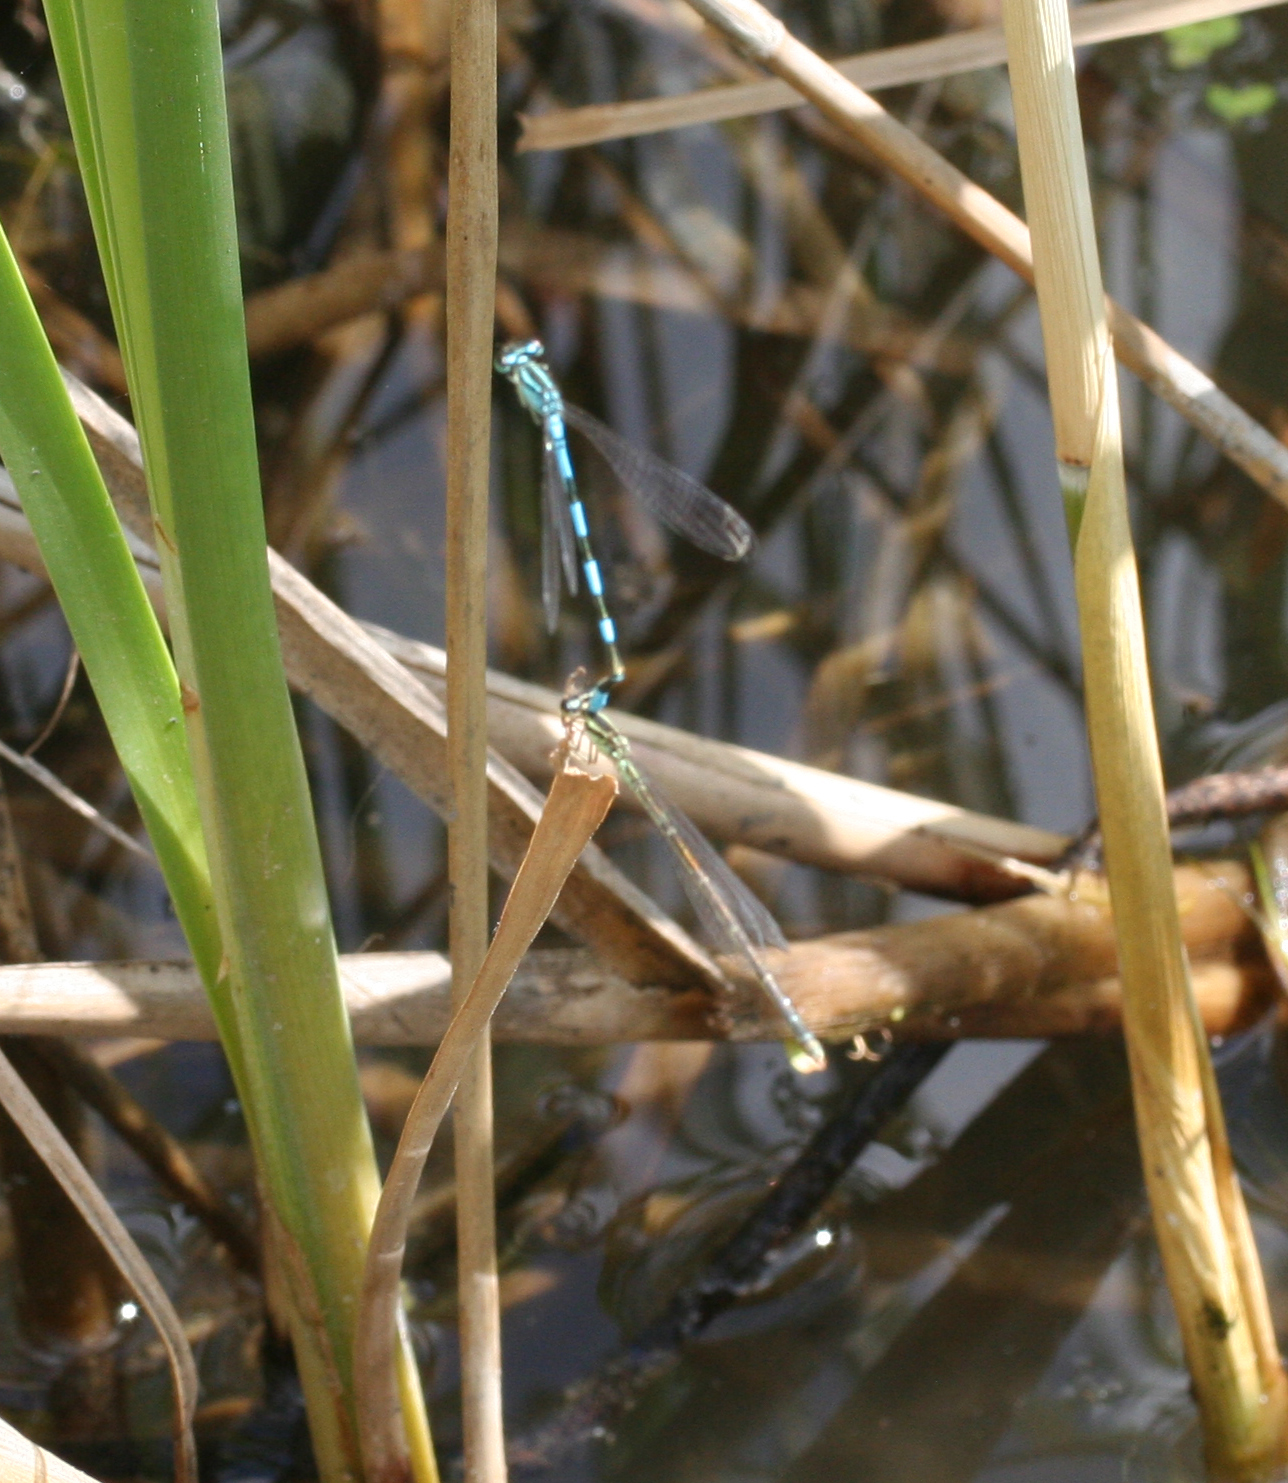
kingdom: Animalia
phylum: Arthropoda
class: Insecta
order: Odonata
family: Coenagrionidae
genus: Coenagrion
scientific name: Coenagrion johanssoni
